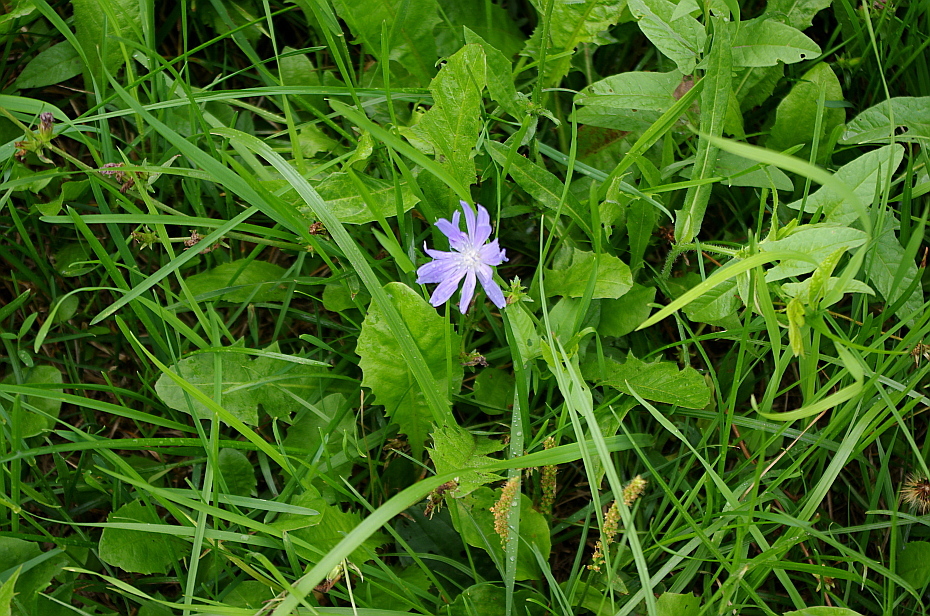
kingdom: Plantae
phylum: Tracheophyta
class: Magnoliopsida
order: Asterales
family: Asteraceae
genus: Cichorium
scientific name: Cichorium intybus
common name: Chicory
